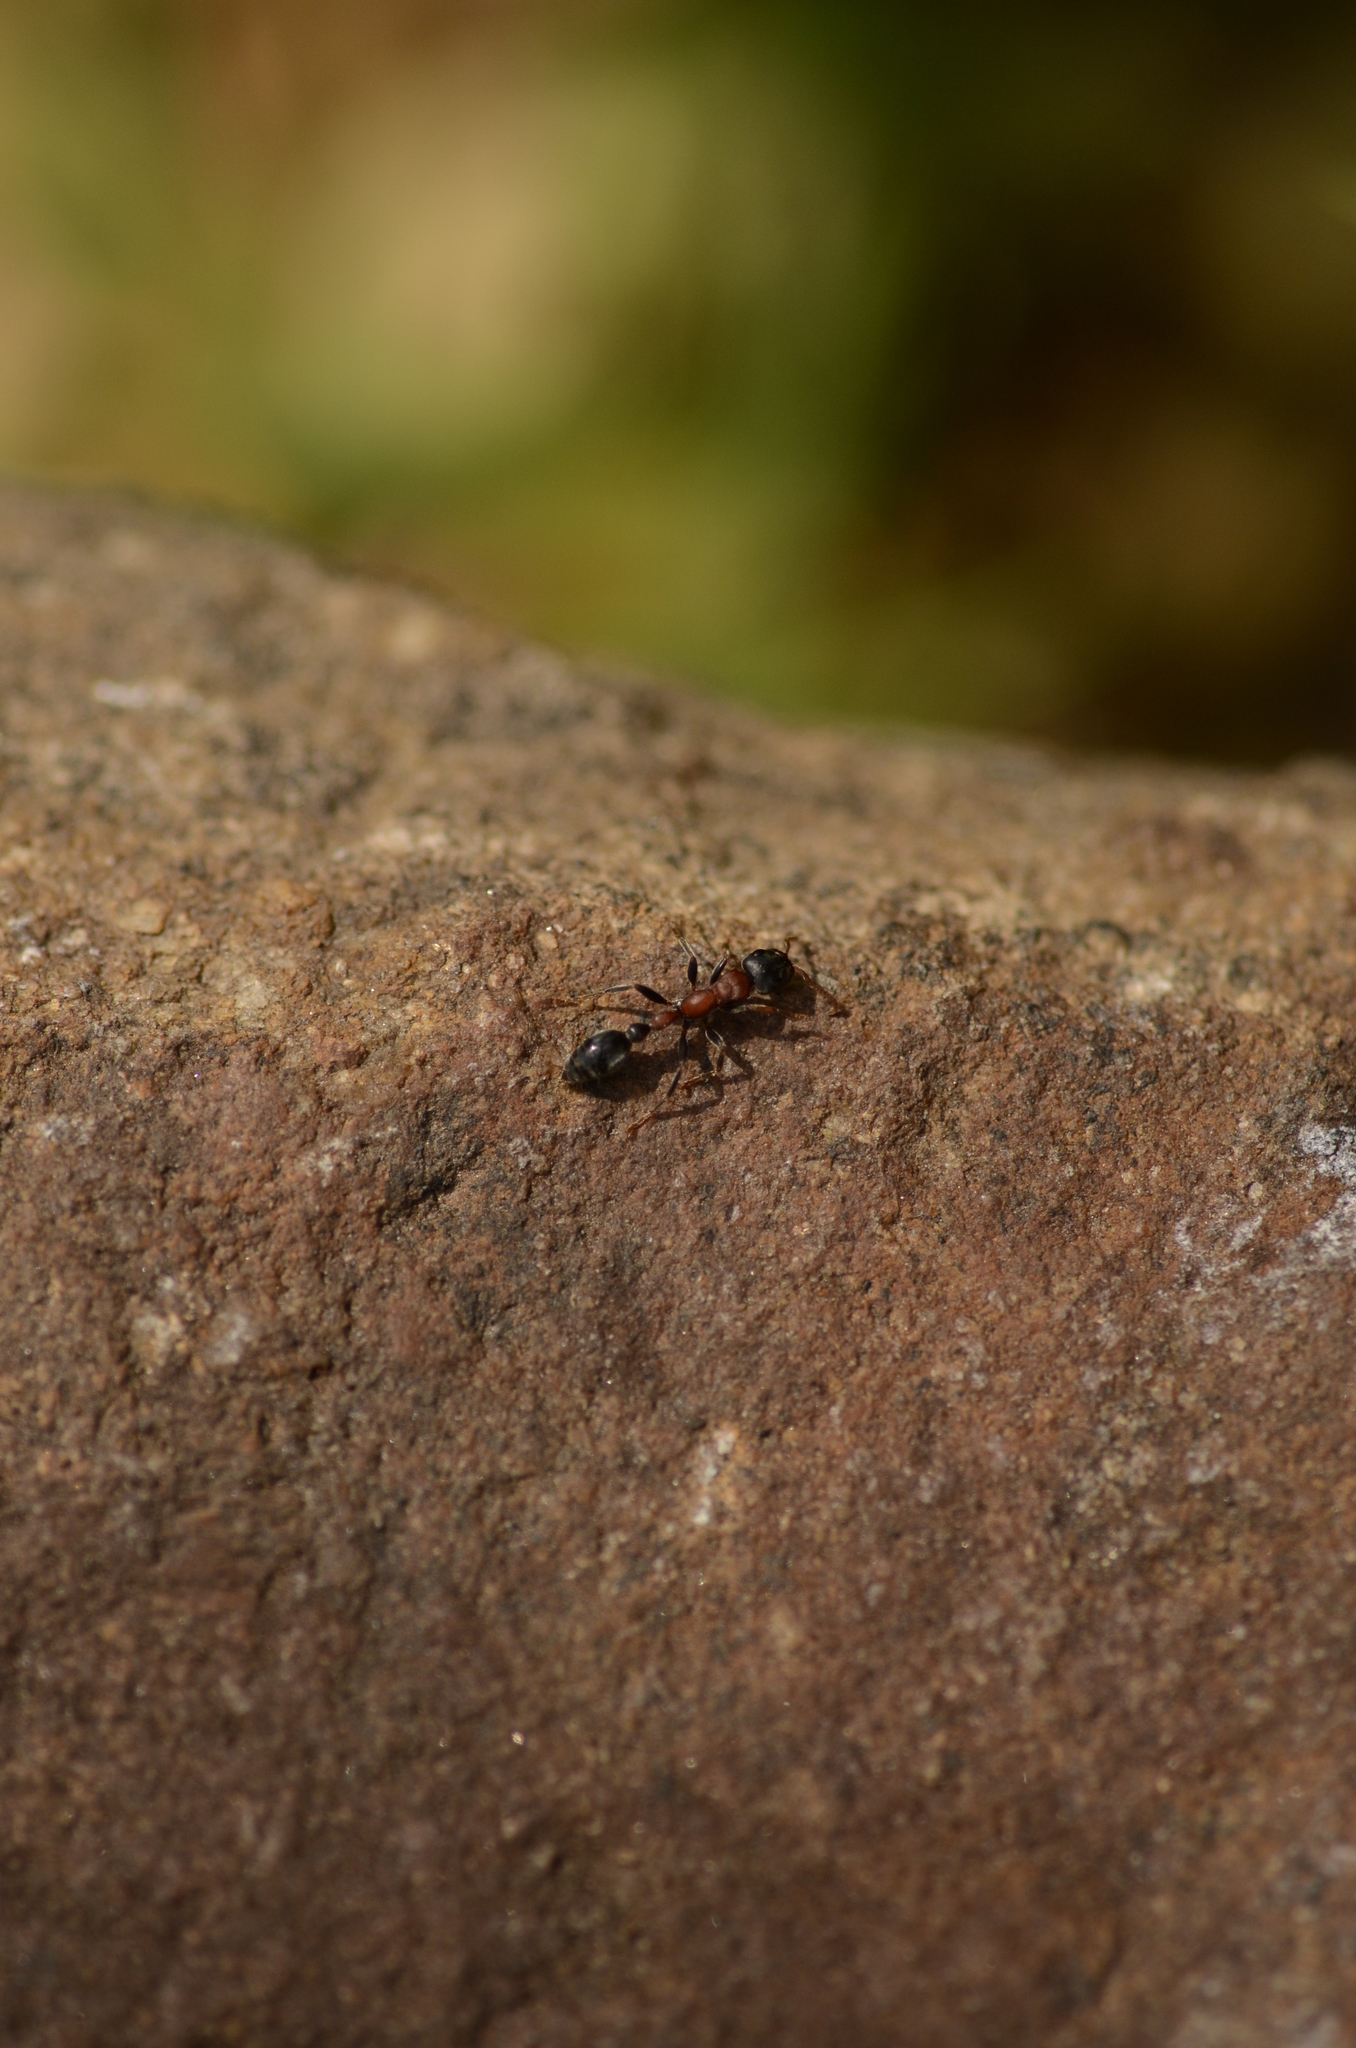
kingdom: Animalia
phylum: Arthropoda
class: Insecta
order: Hymenoptera
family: Formicidae
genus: Tetraponera
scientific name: Tetraponera rufonigra
